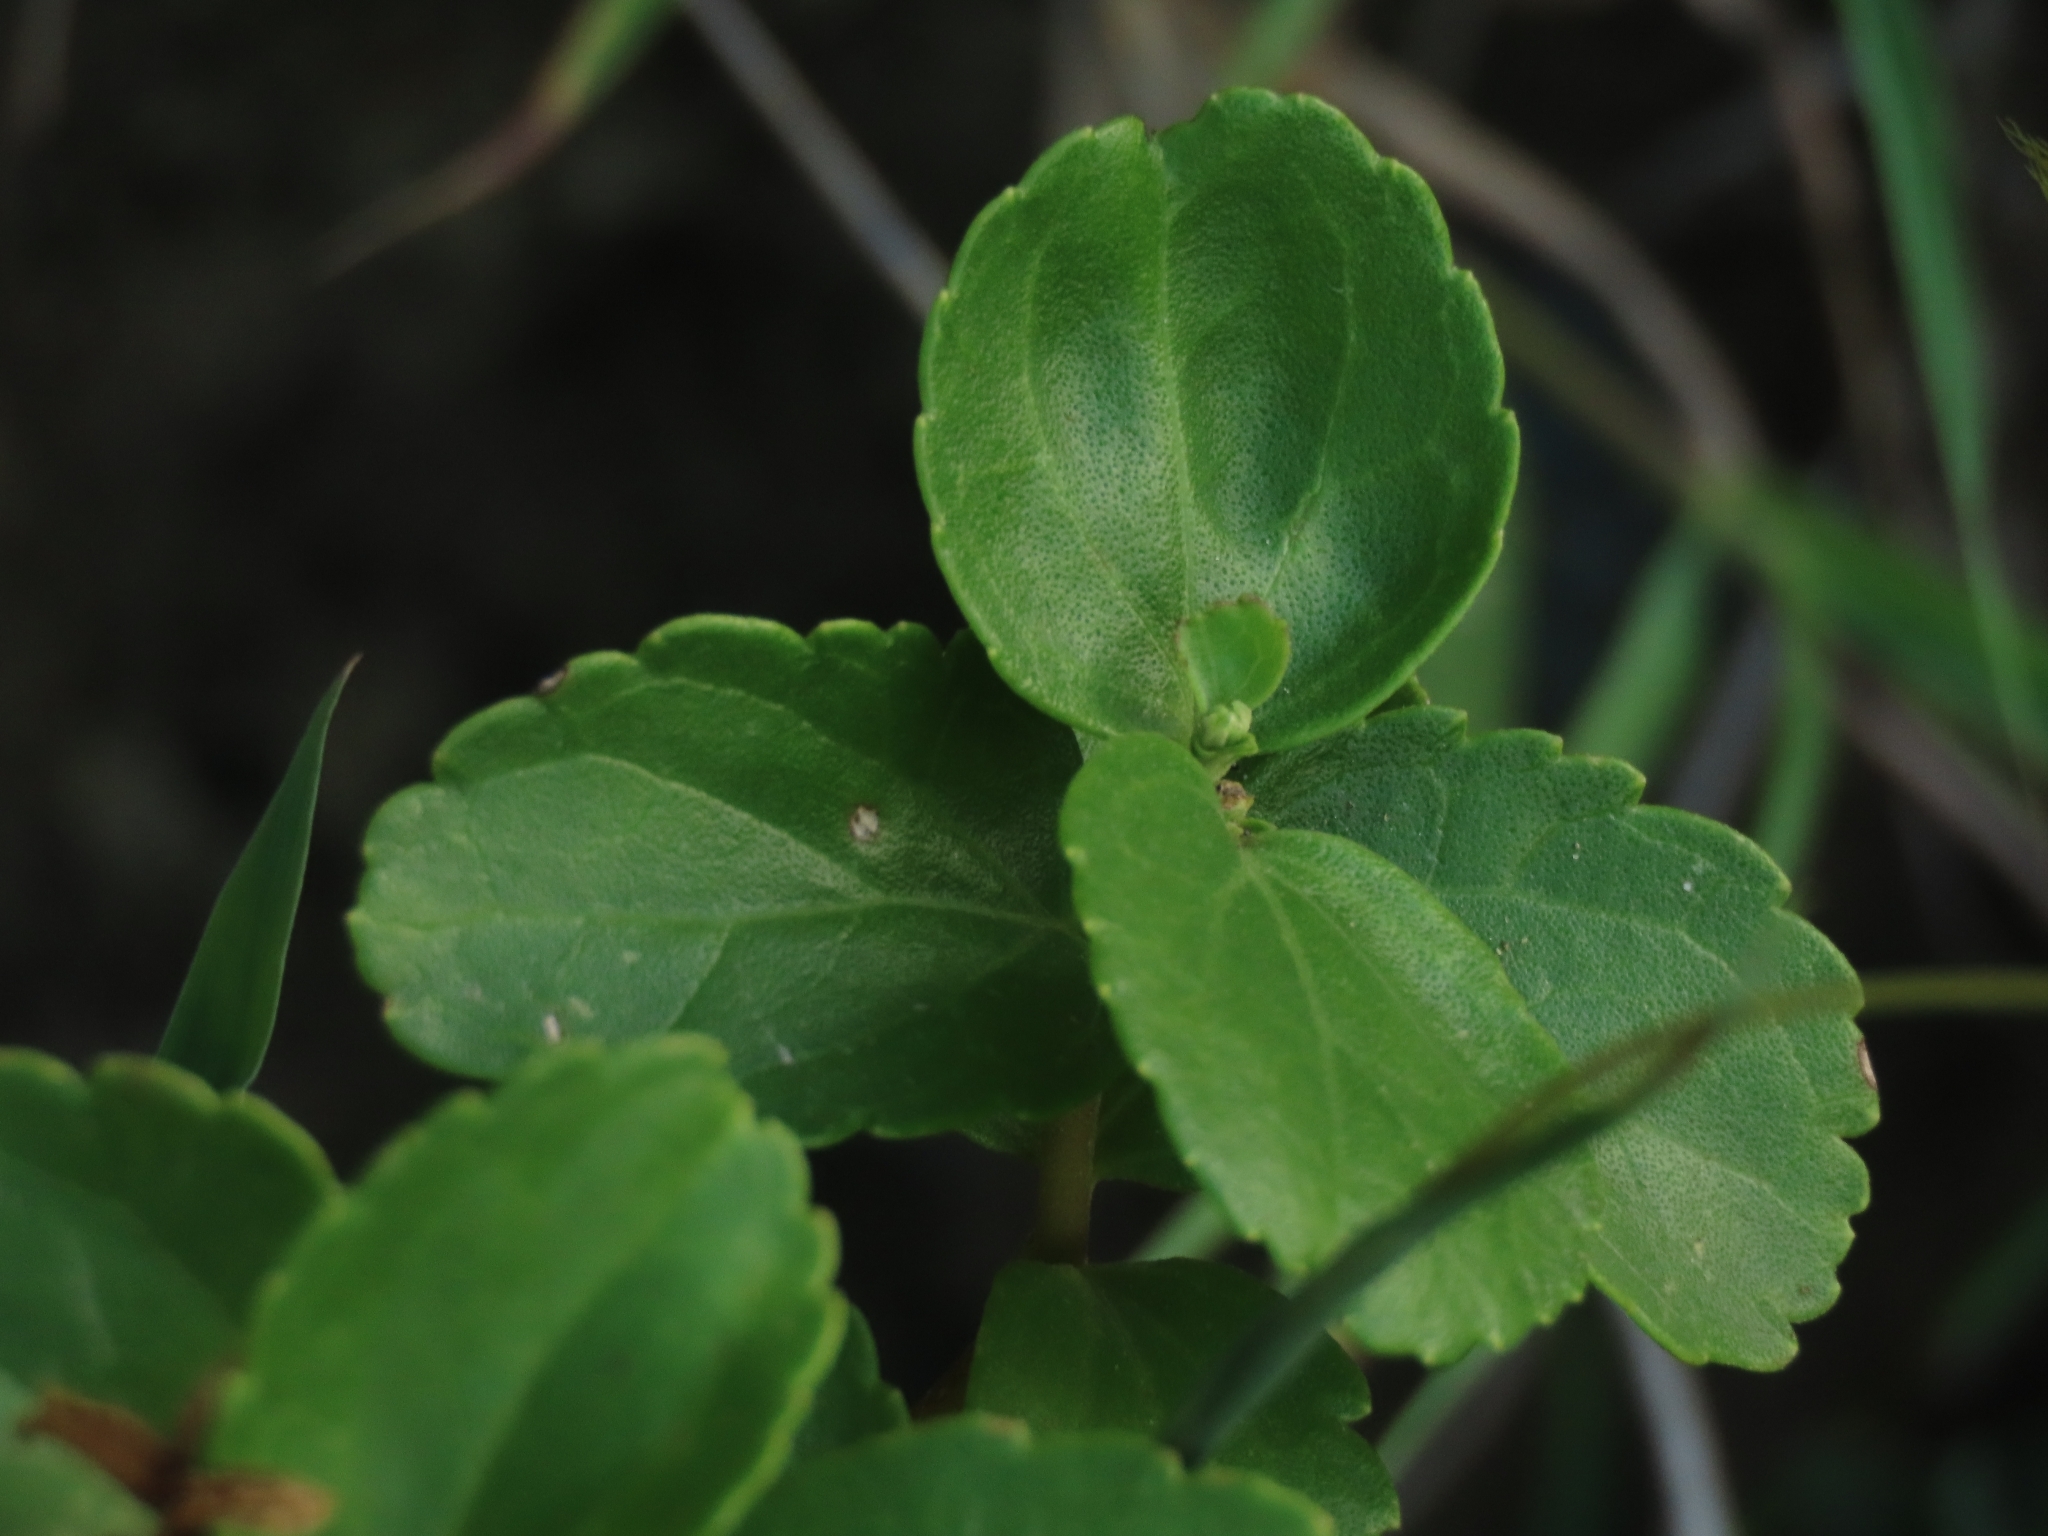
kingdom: Plantae
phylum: Tracheophyta
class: Magnoliopsida
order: Asterales
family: Asteraceae
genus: Eupatorium
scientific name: Eupatorium hualienense
